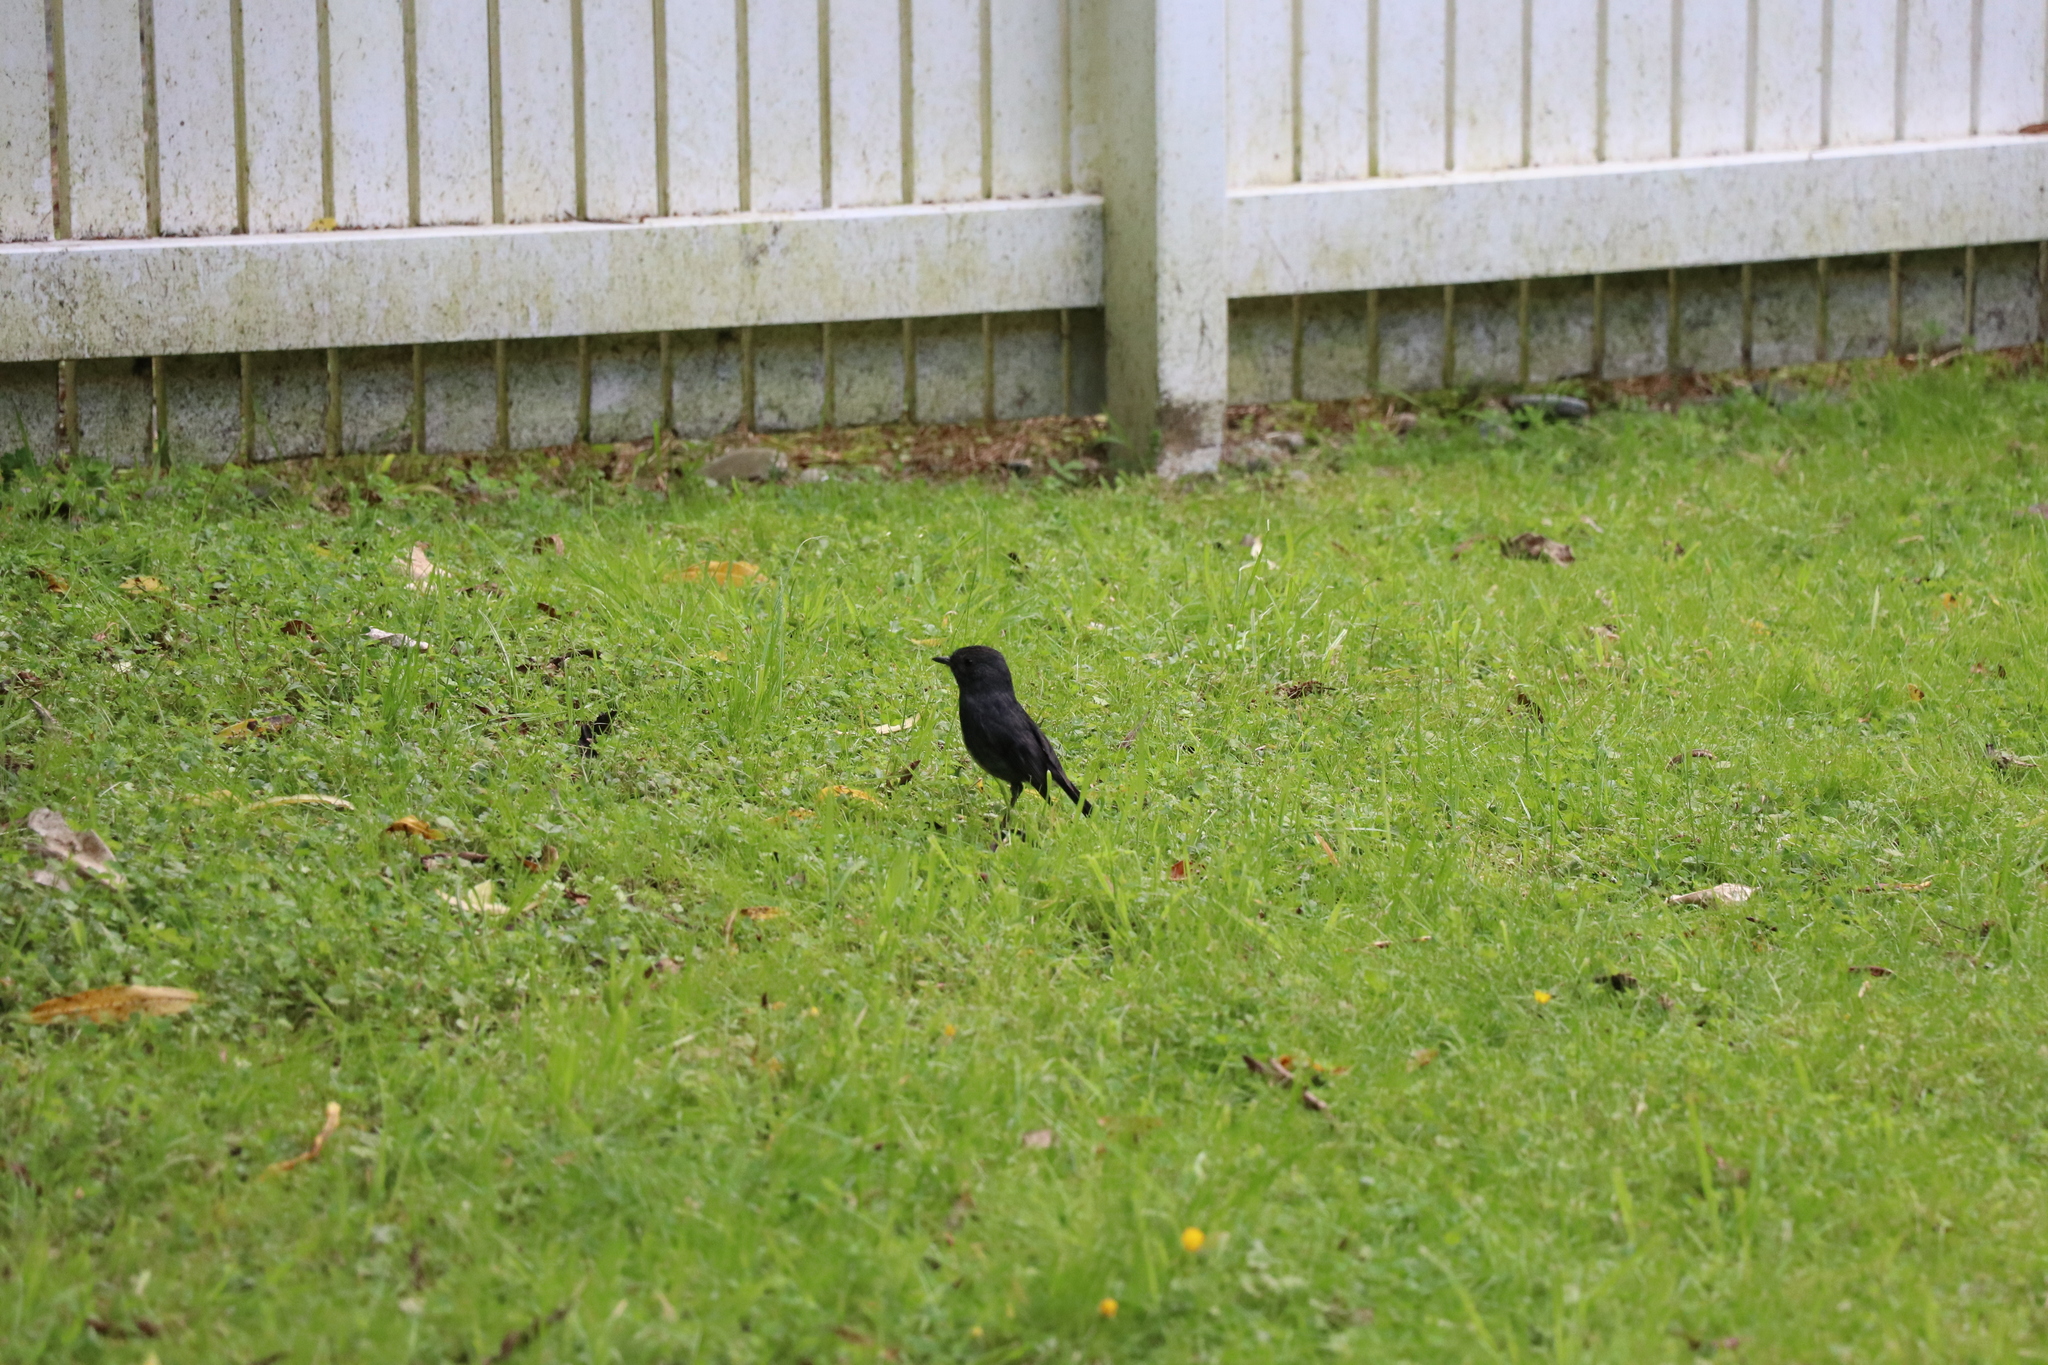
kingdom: Animalia
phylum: Chordata
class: Aves
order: Passeriformes
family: Petroicidae
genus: Petroica
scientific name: Petroica australis
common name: New zealand robin
